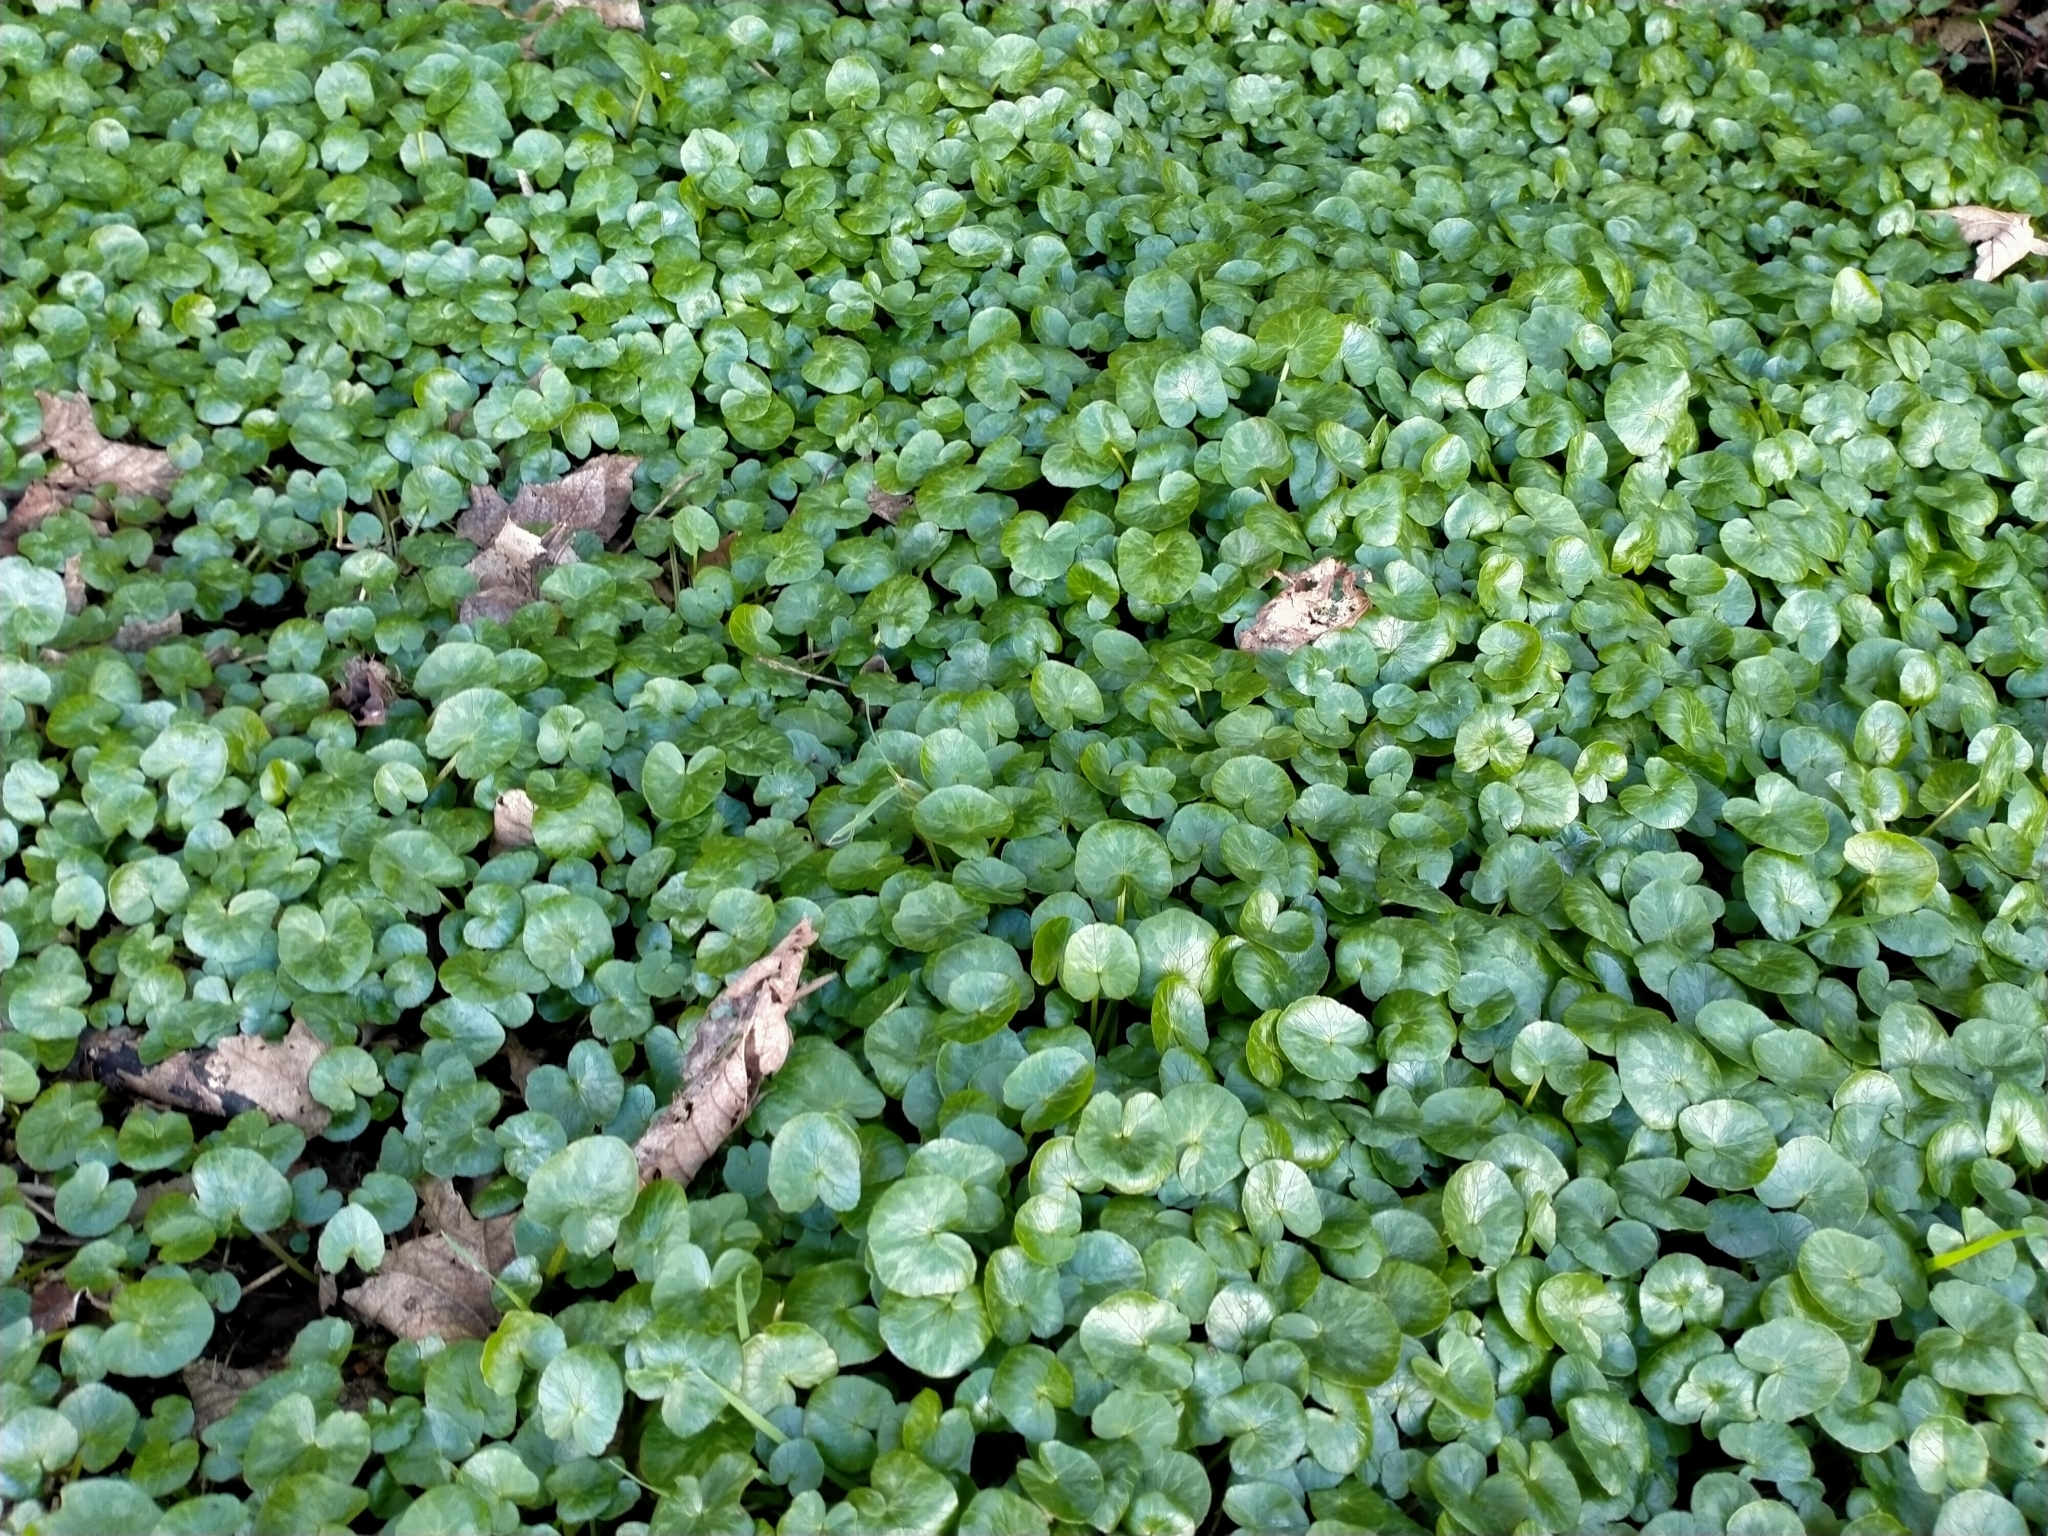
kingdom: Plantae
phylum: Tracheophyta
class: Magnoliopsida
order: Ranunculales
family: Ranunculaceae
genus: Ficaria
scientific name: Ficaria verna
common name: Lesser celandine
